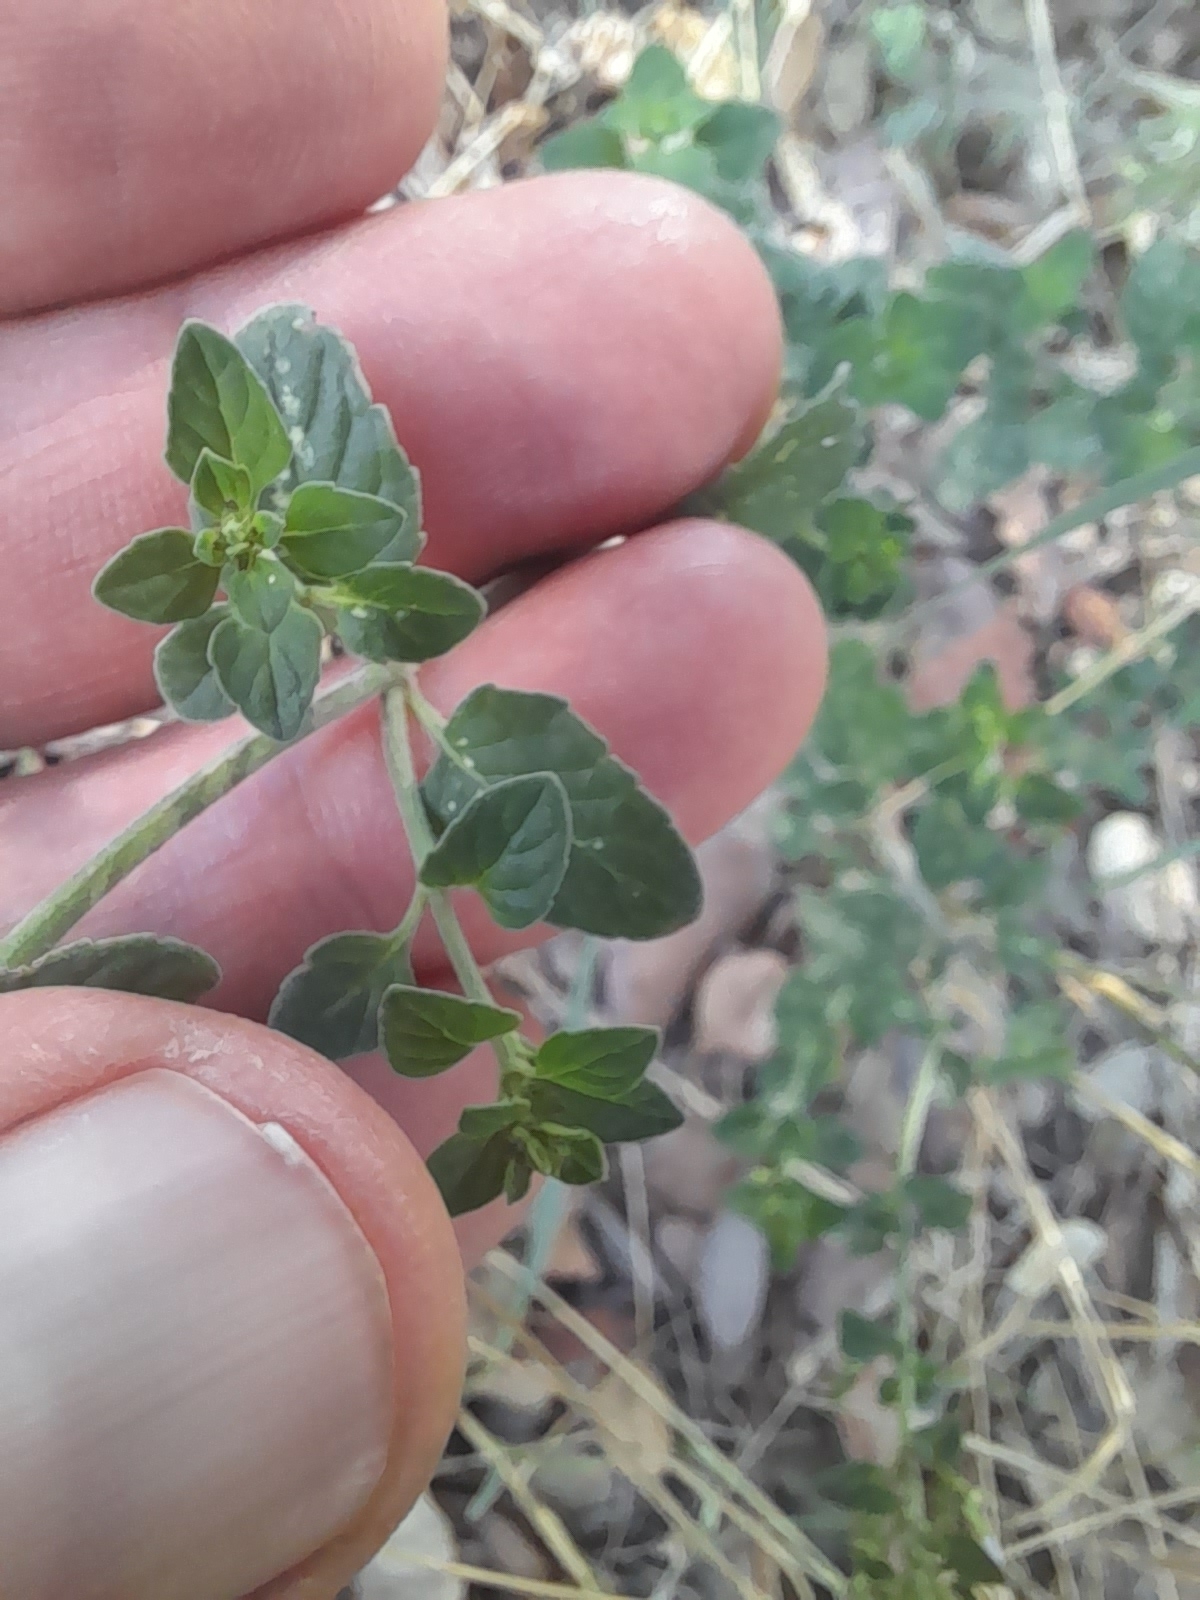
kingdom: Plantae
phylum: Tracheophyta
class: Magnoliopsida
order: Lamiales
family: Lamiaceae
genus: Clinopodium
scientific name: Clinopodium nepeta
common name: Lesser calamint
